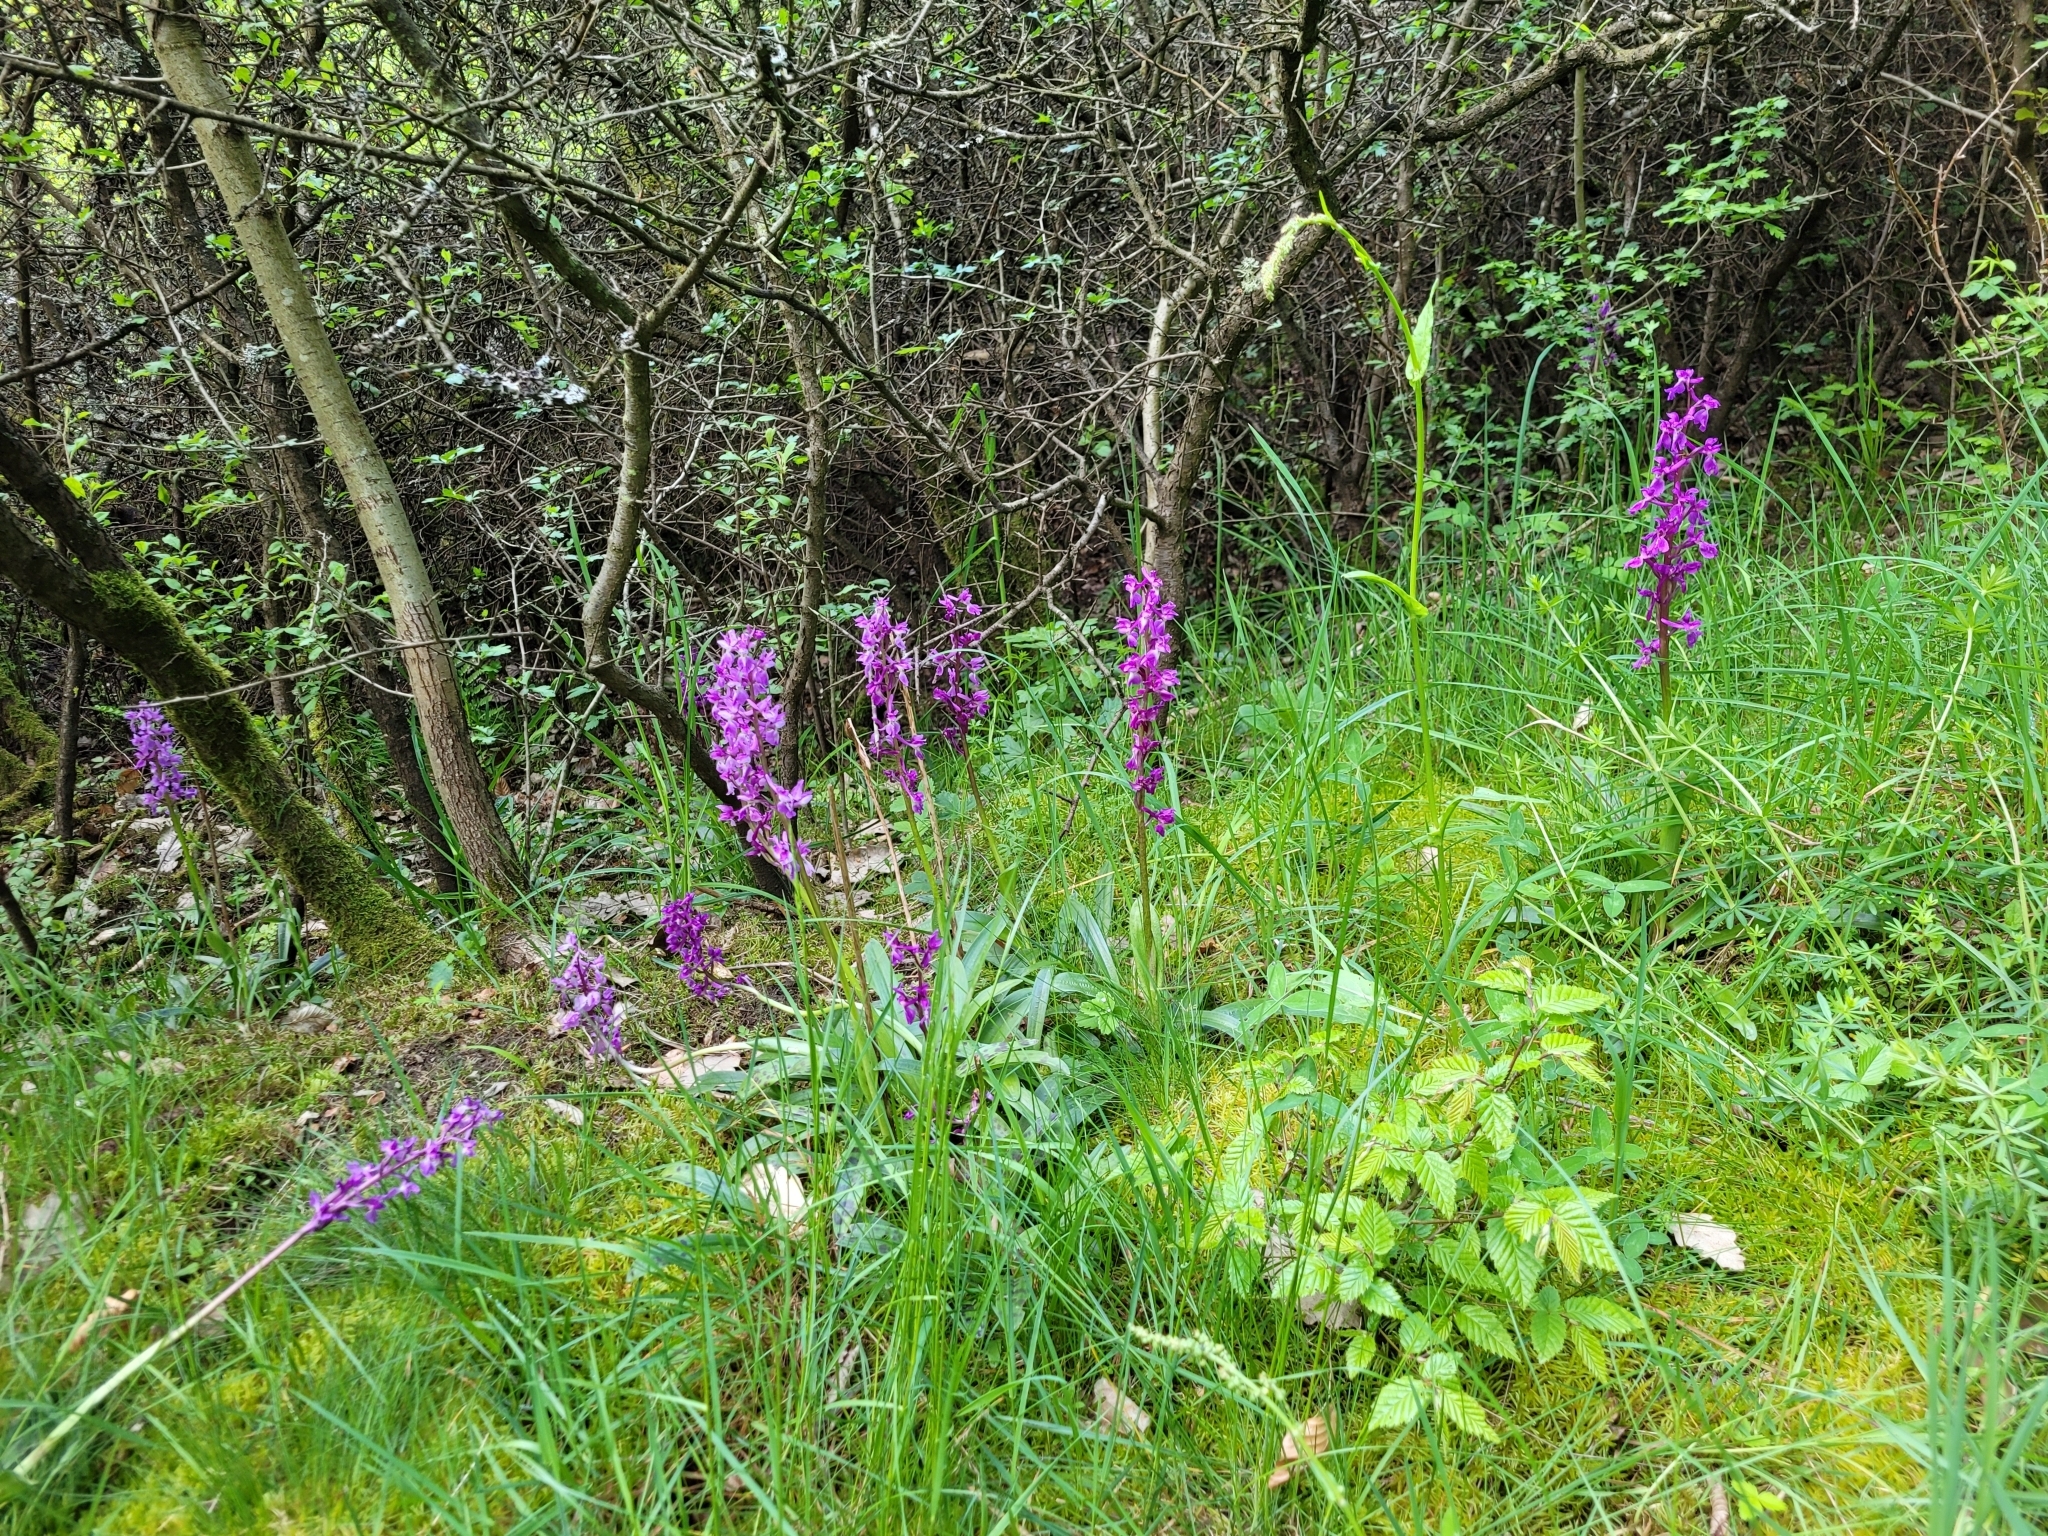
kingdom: Plantae
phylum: Tracheophyta
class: Liliopsida
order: Asparagales
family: Orchidaceae
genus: Orchis
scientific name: Orchis mascula
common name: Early-purple orchid
